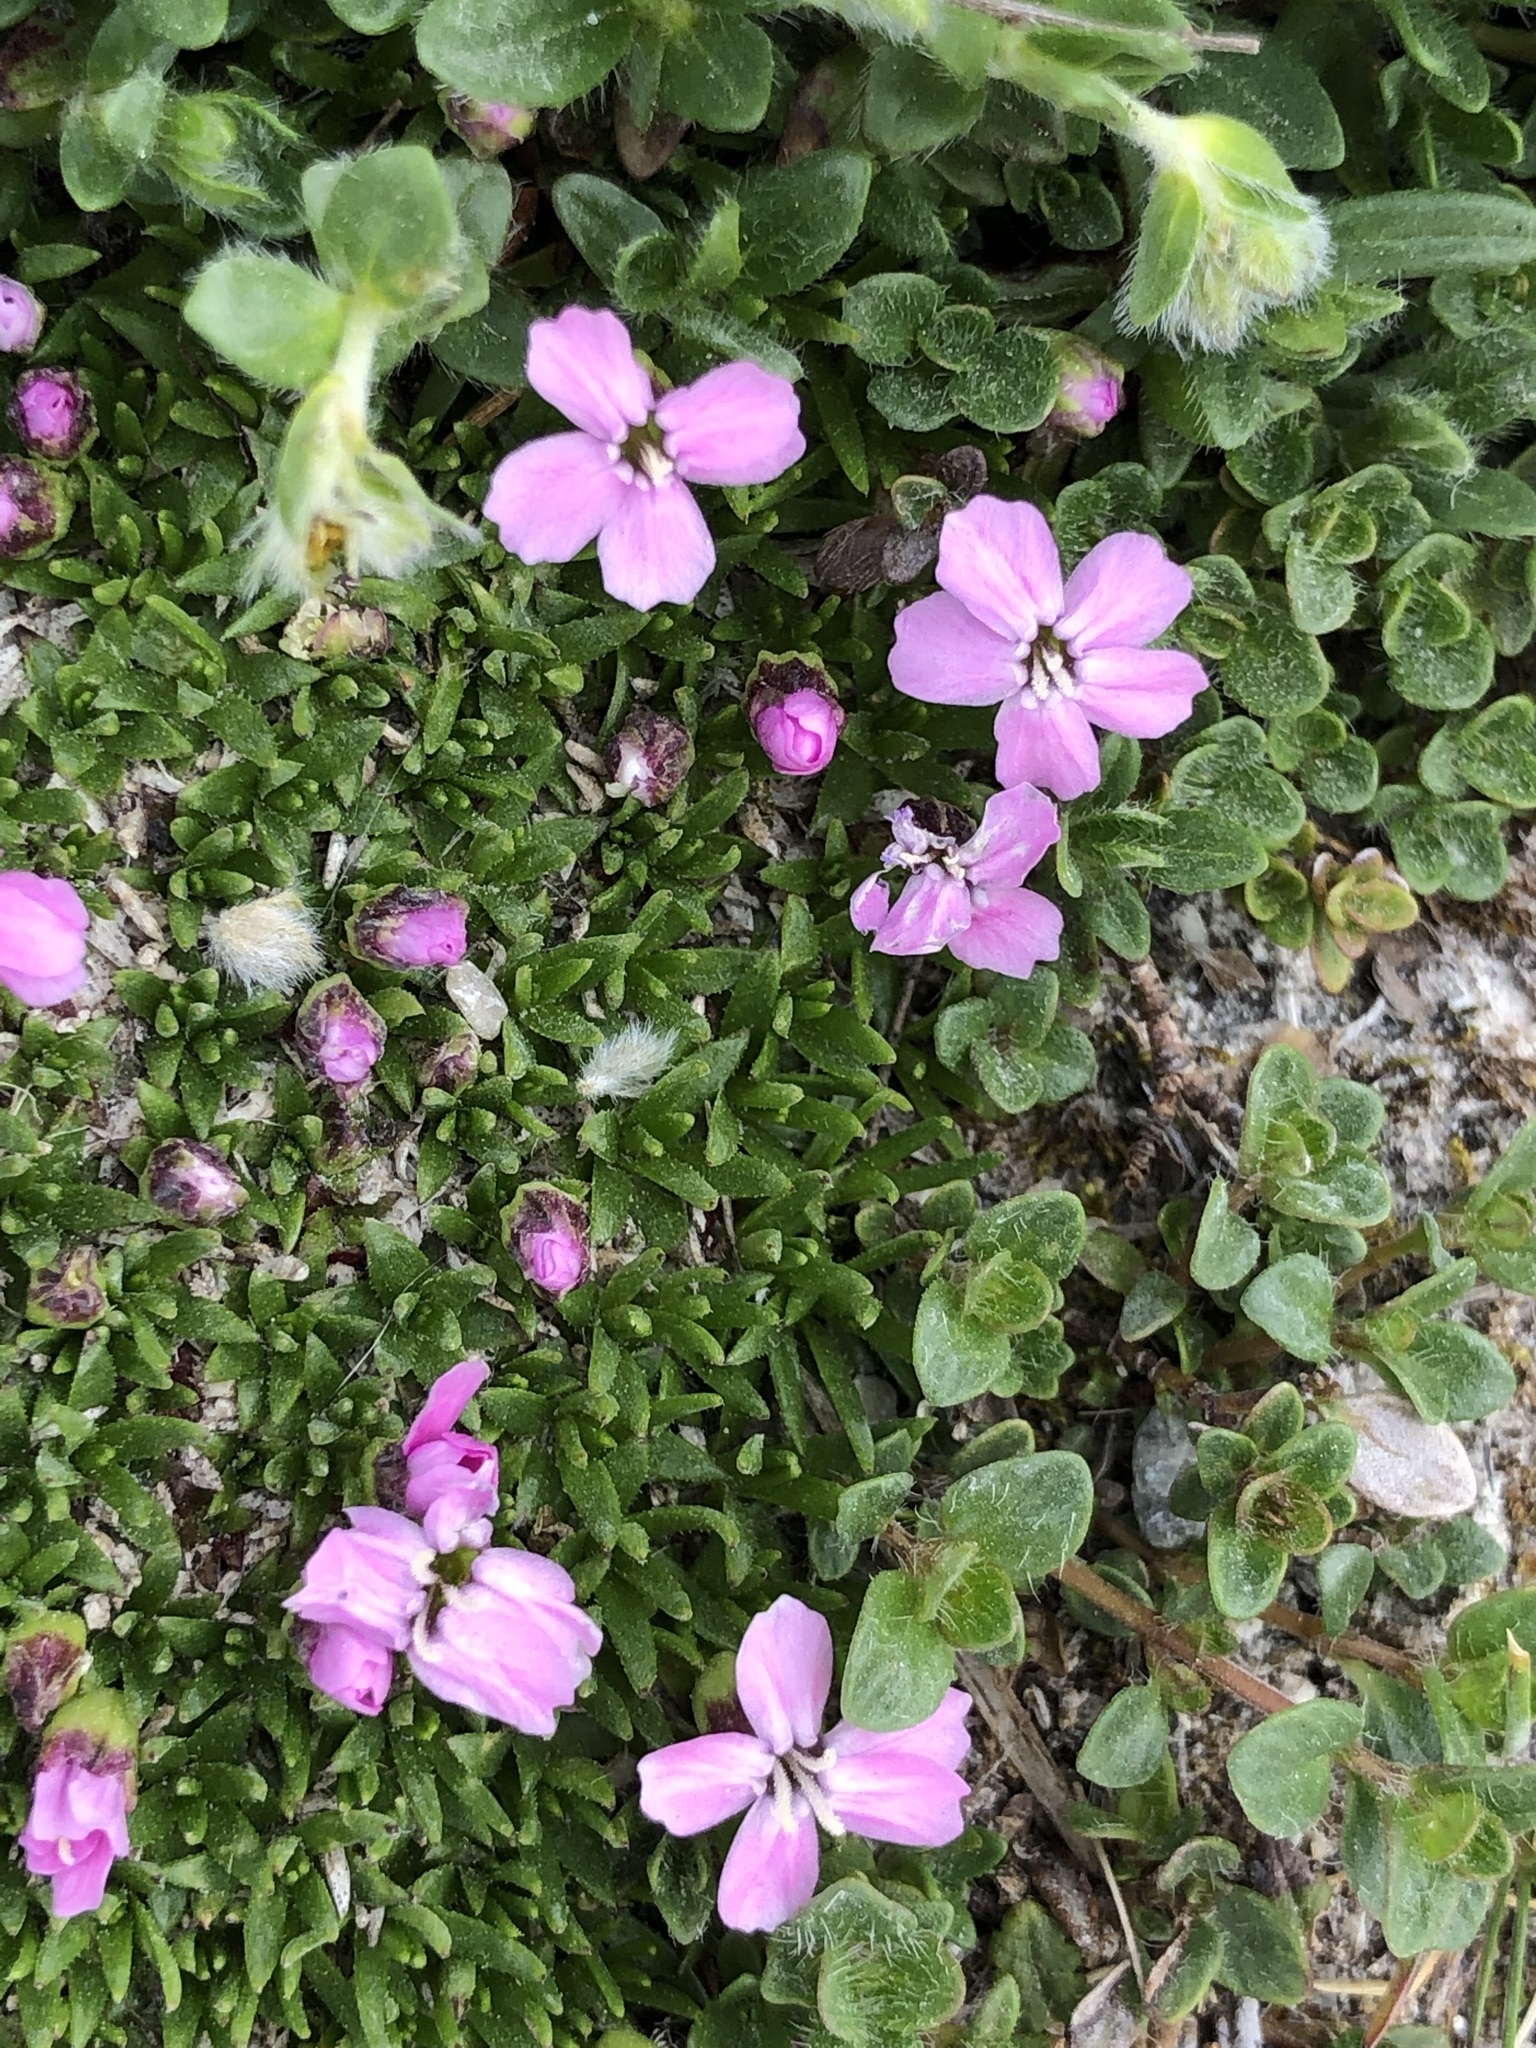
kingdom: Plantae
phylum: Tracheophyta
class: Magnoliopsida
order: Caryophyllales
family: Caryophyllaceae
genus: Silene
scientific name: Silene acaulis
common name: Moss campion
